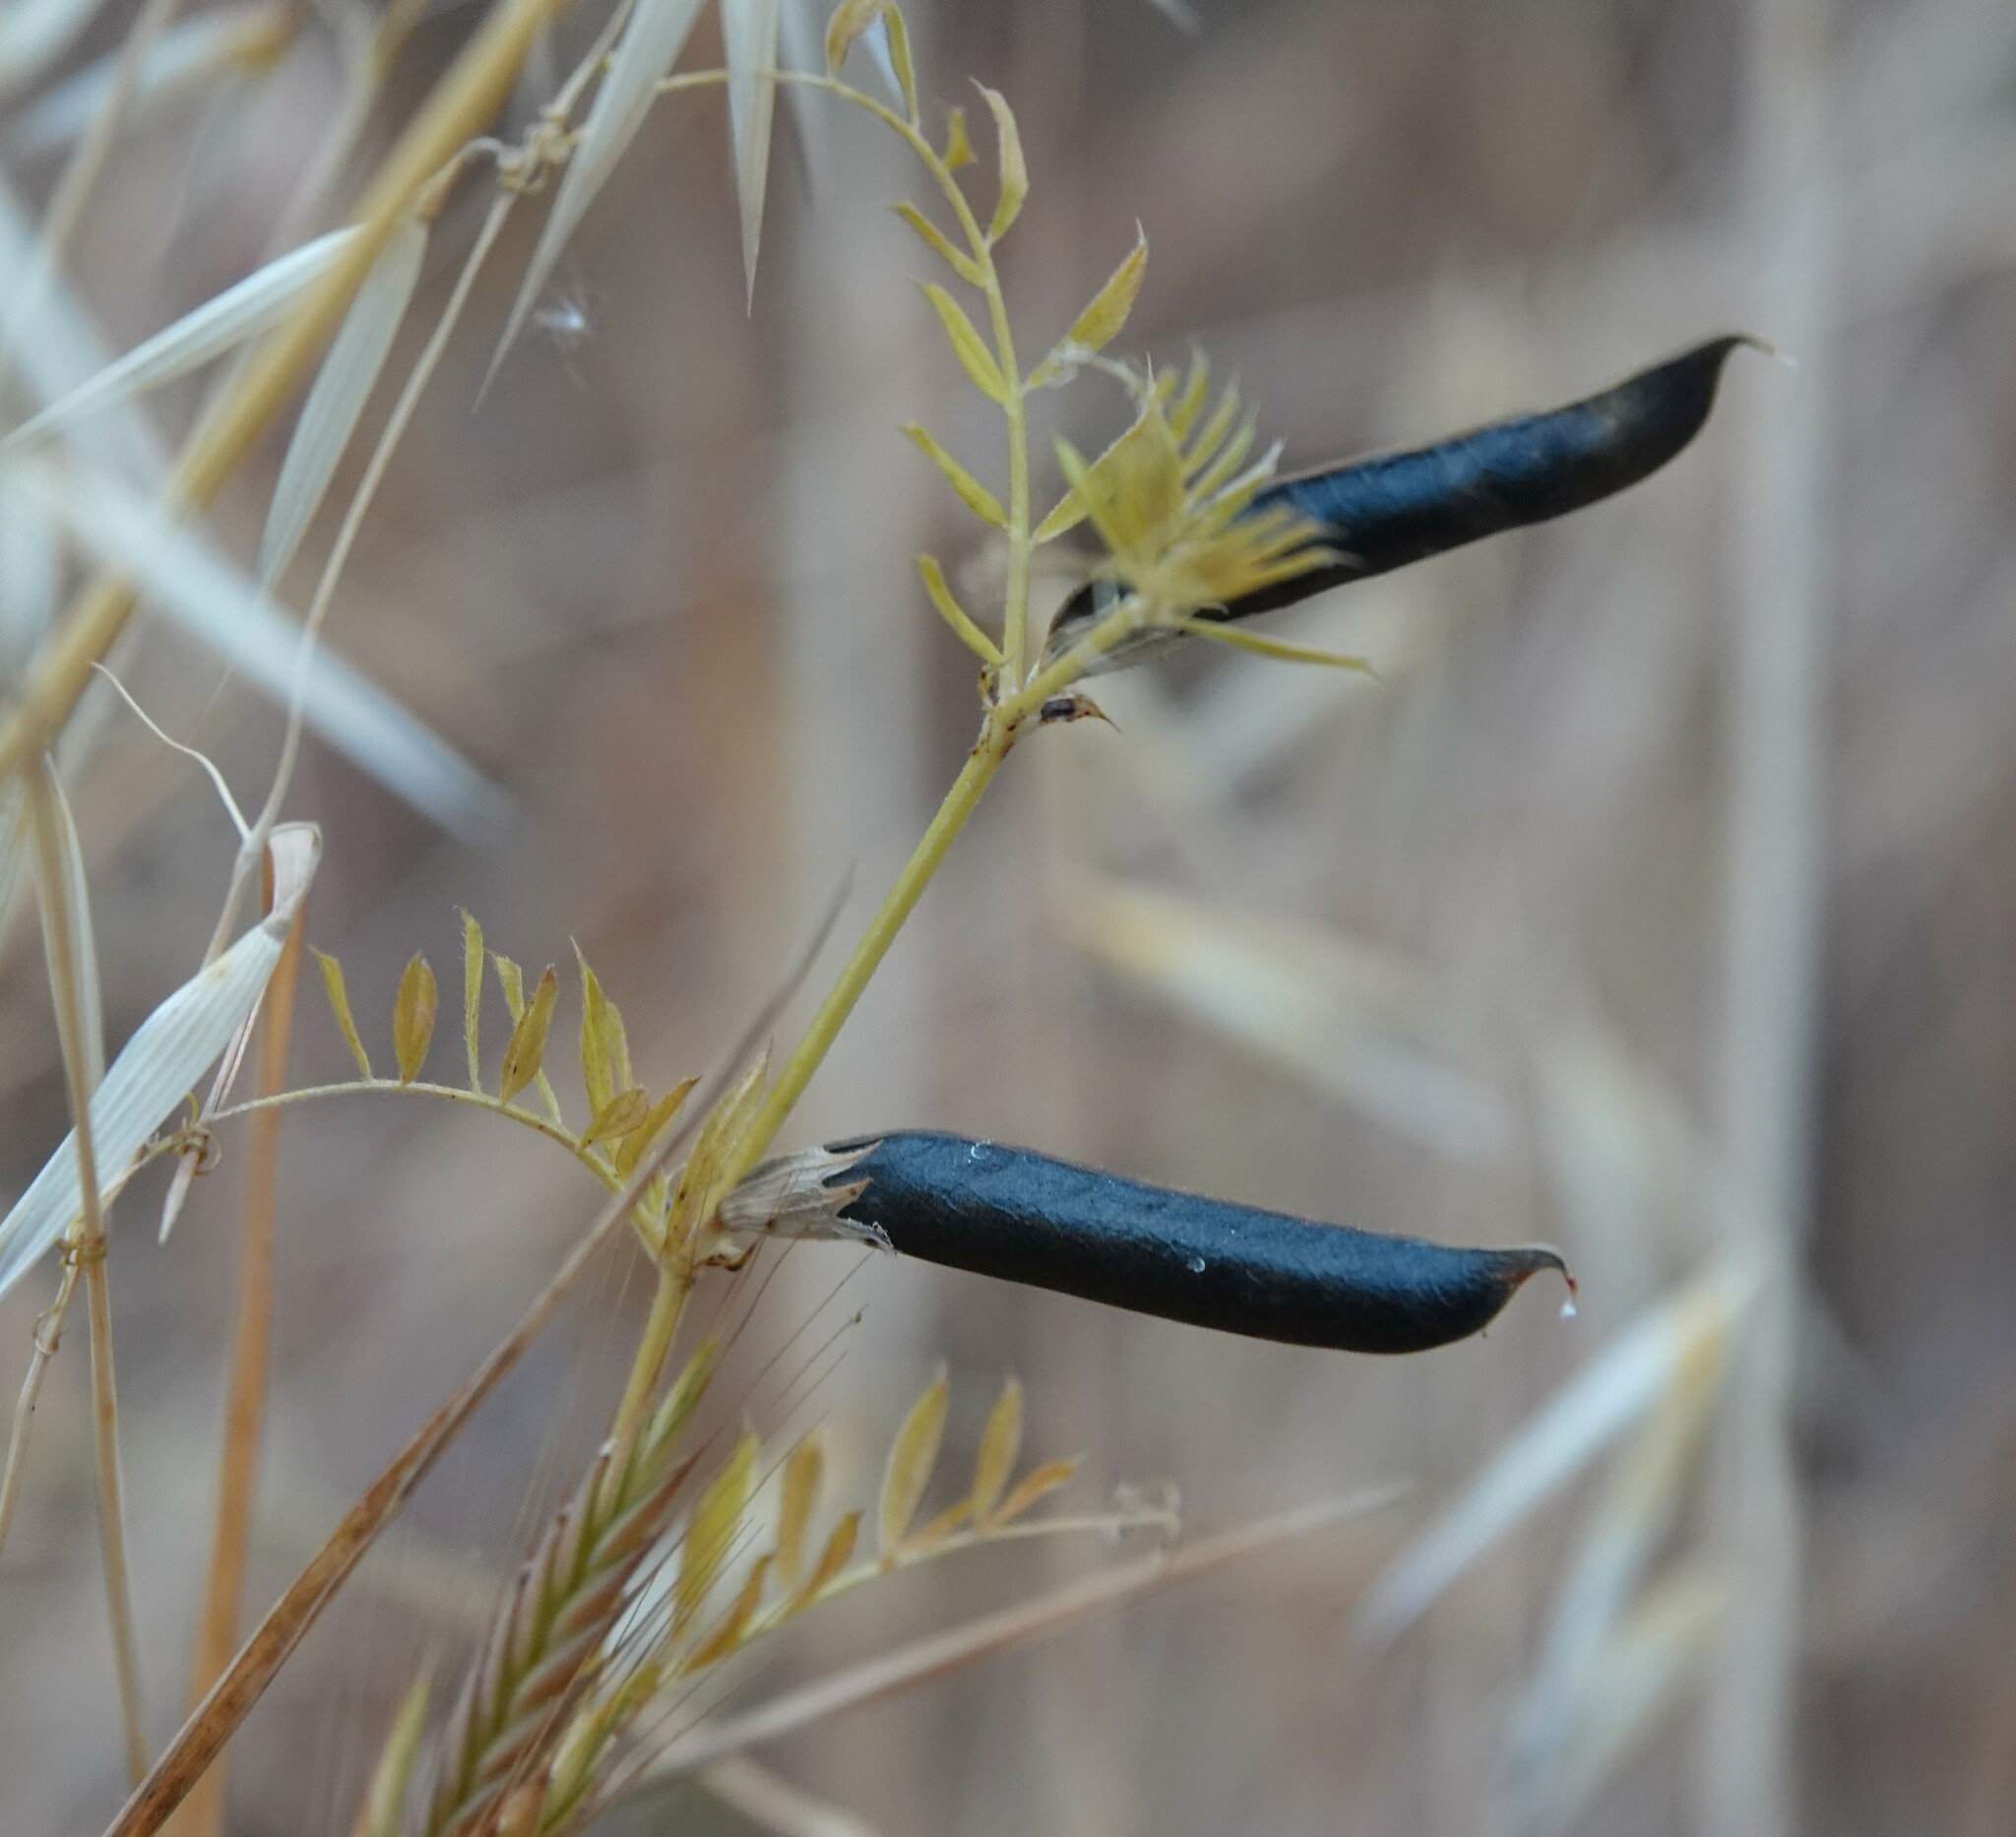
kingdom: Plantae
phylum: Tracheophyta
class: Magnoliopsida
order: Fabales
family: Fabaceae
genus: Vicia
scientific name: Vicia sativa
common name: Garden vetch
